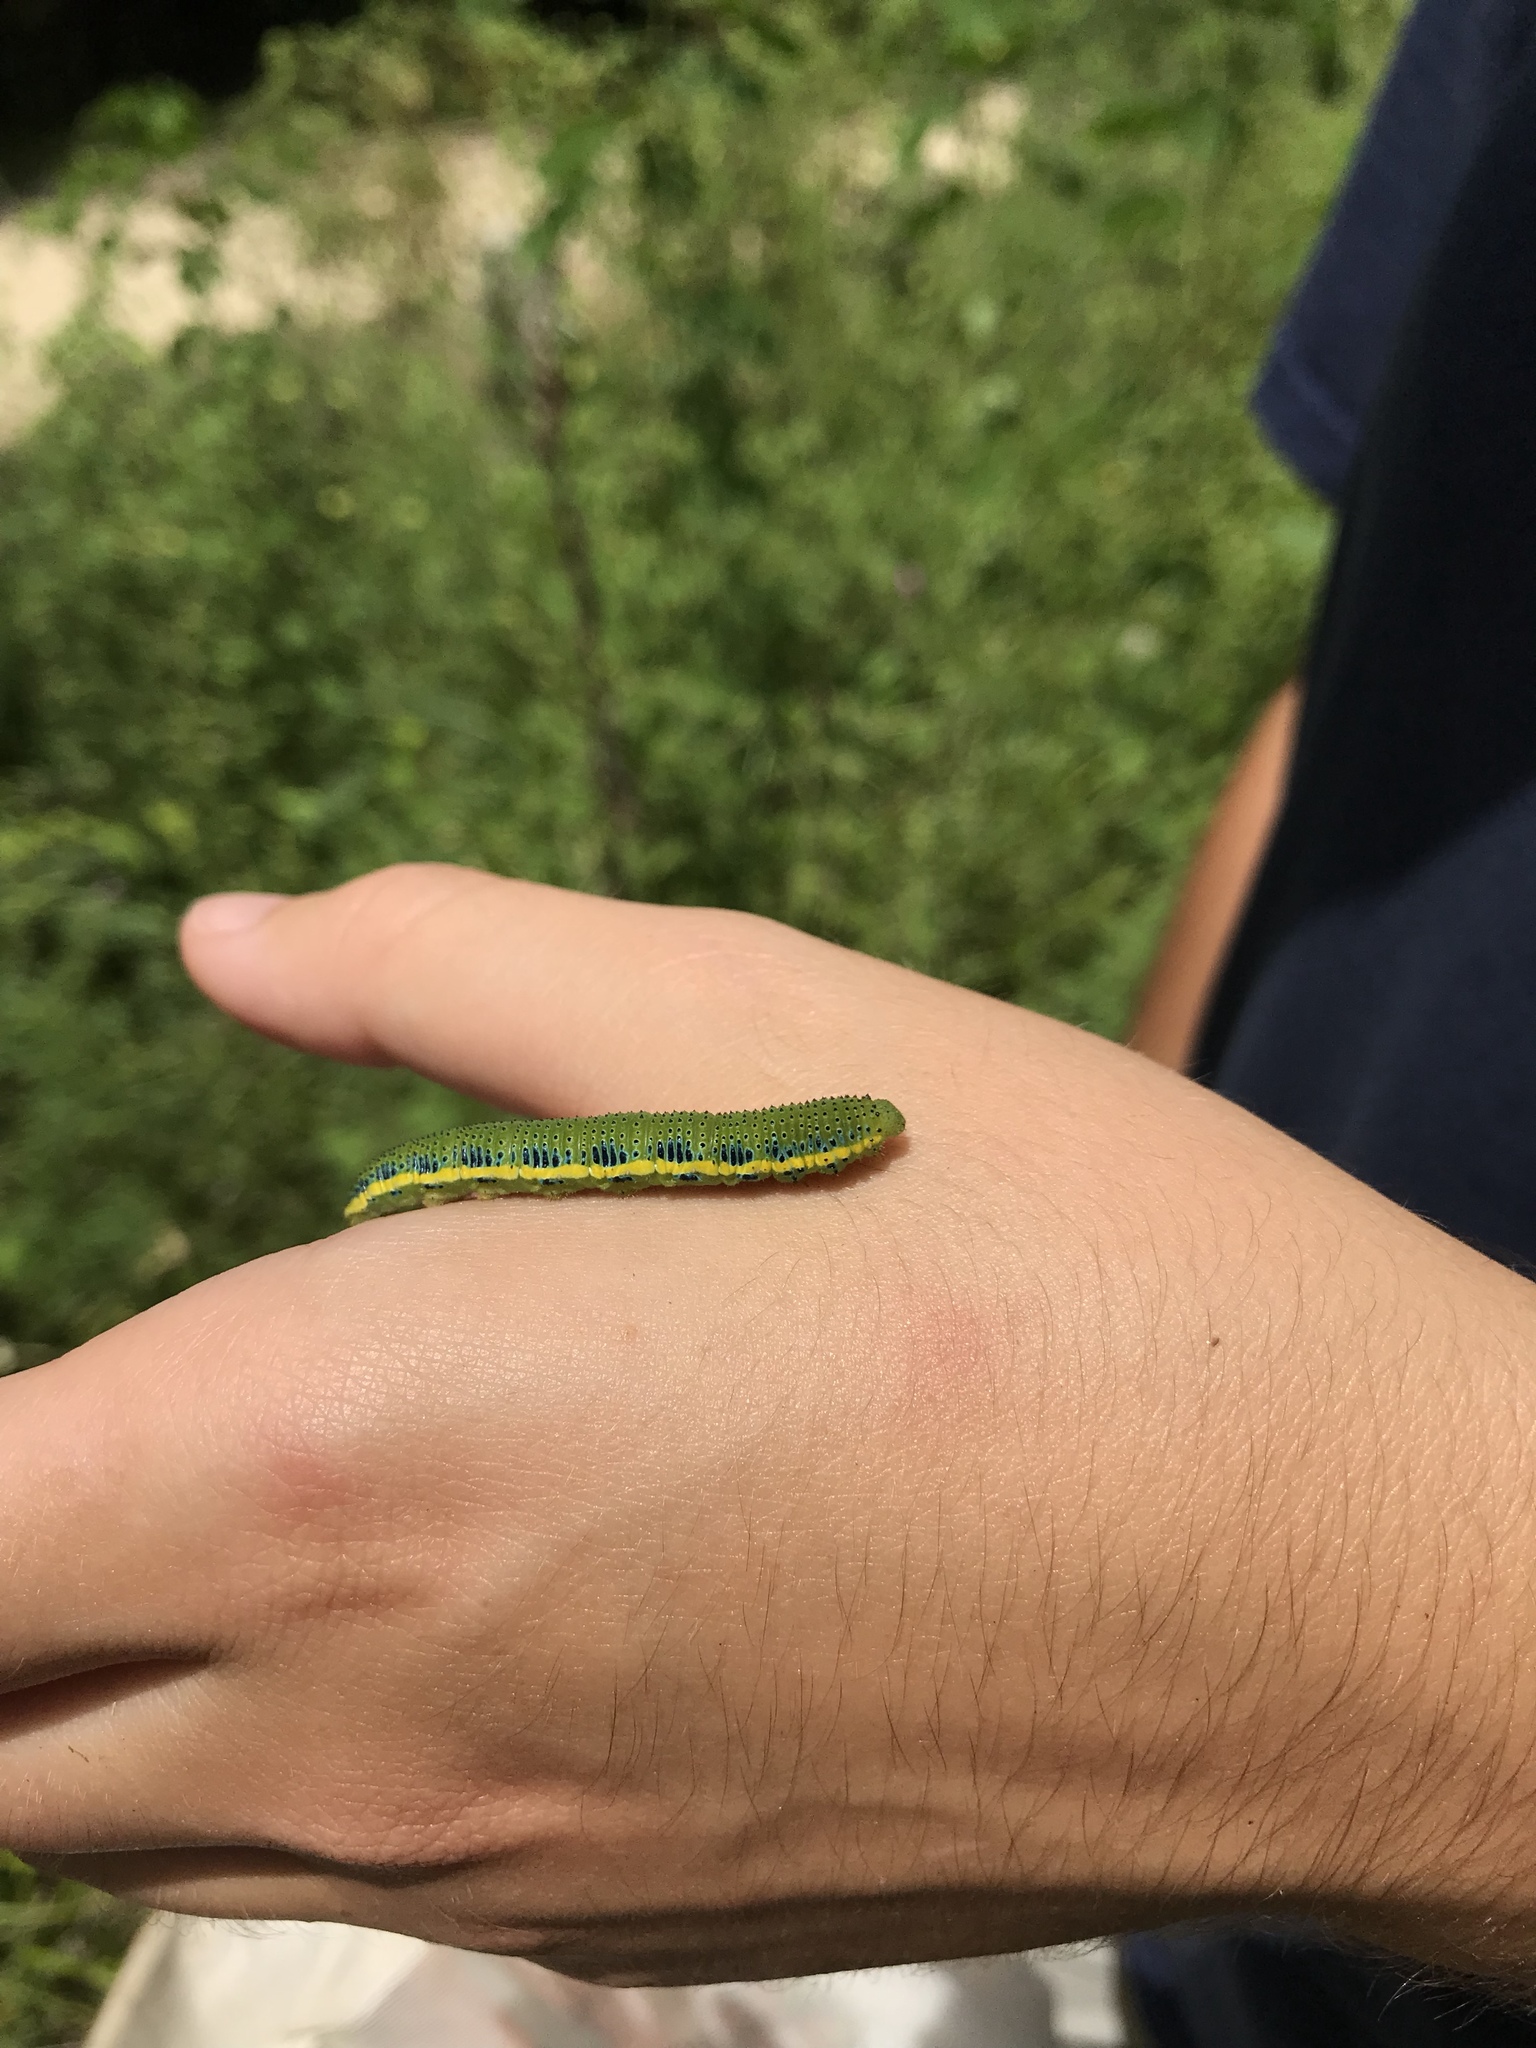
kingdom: Animalia
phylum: Arthropoda
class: Insecta
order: Lepidoptera
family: Pieridae
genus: Phoebis
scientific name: Phoebis sennae
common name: Cloudless sulphur
